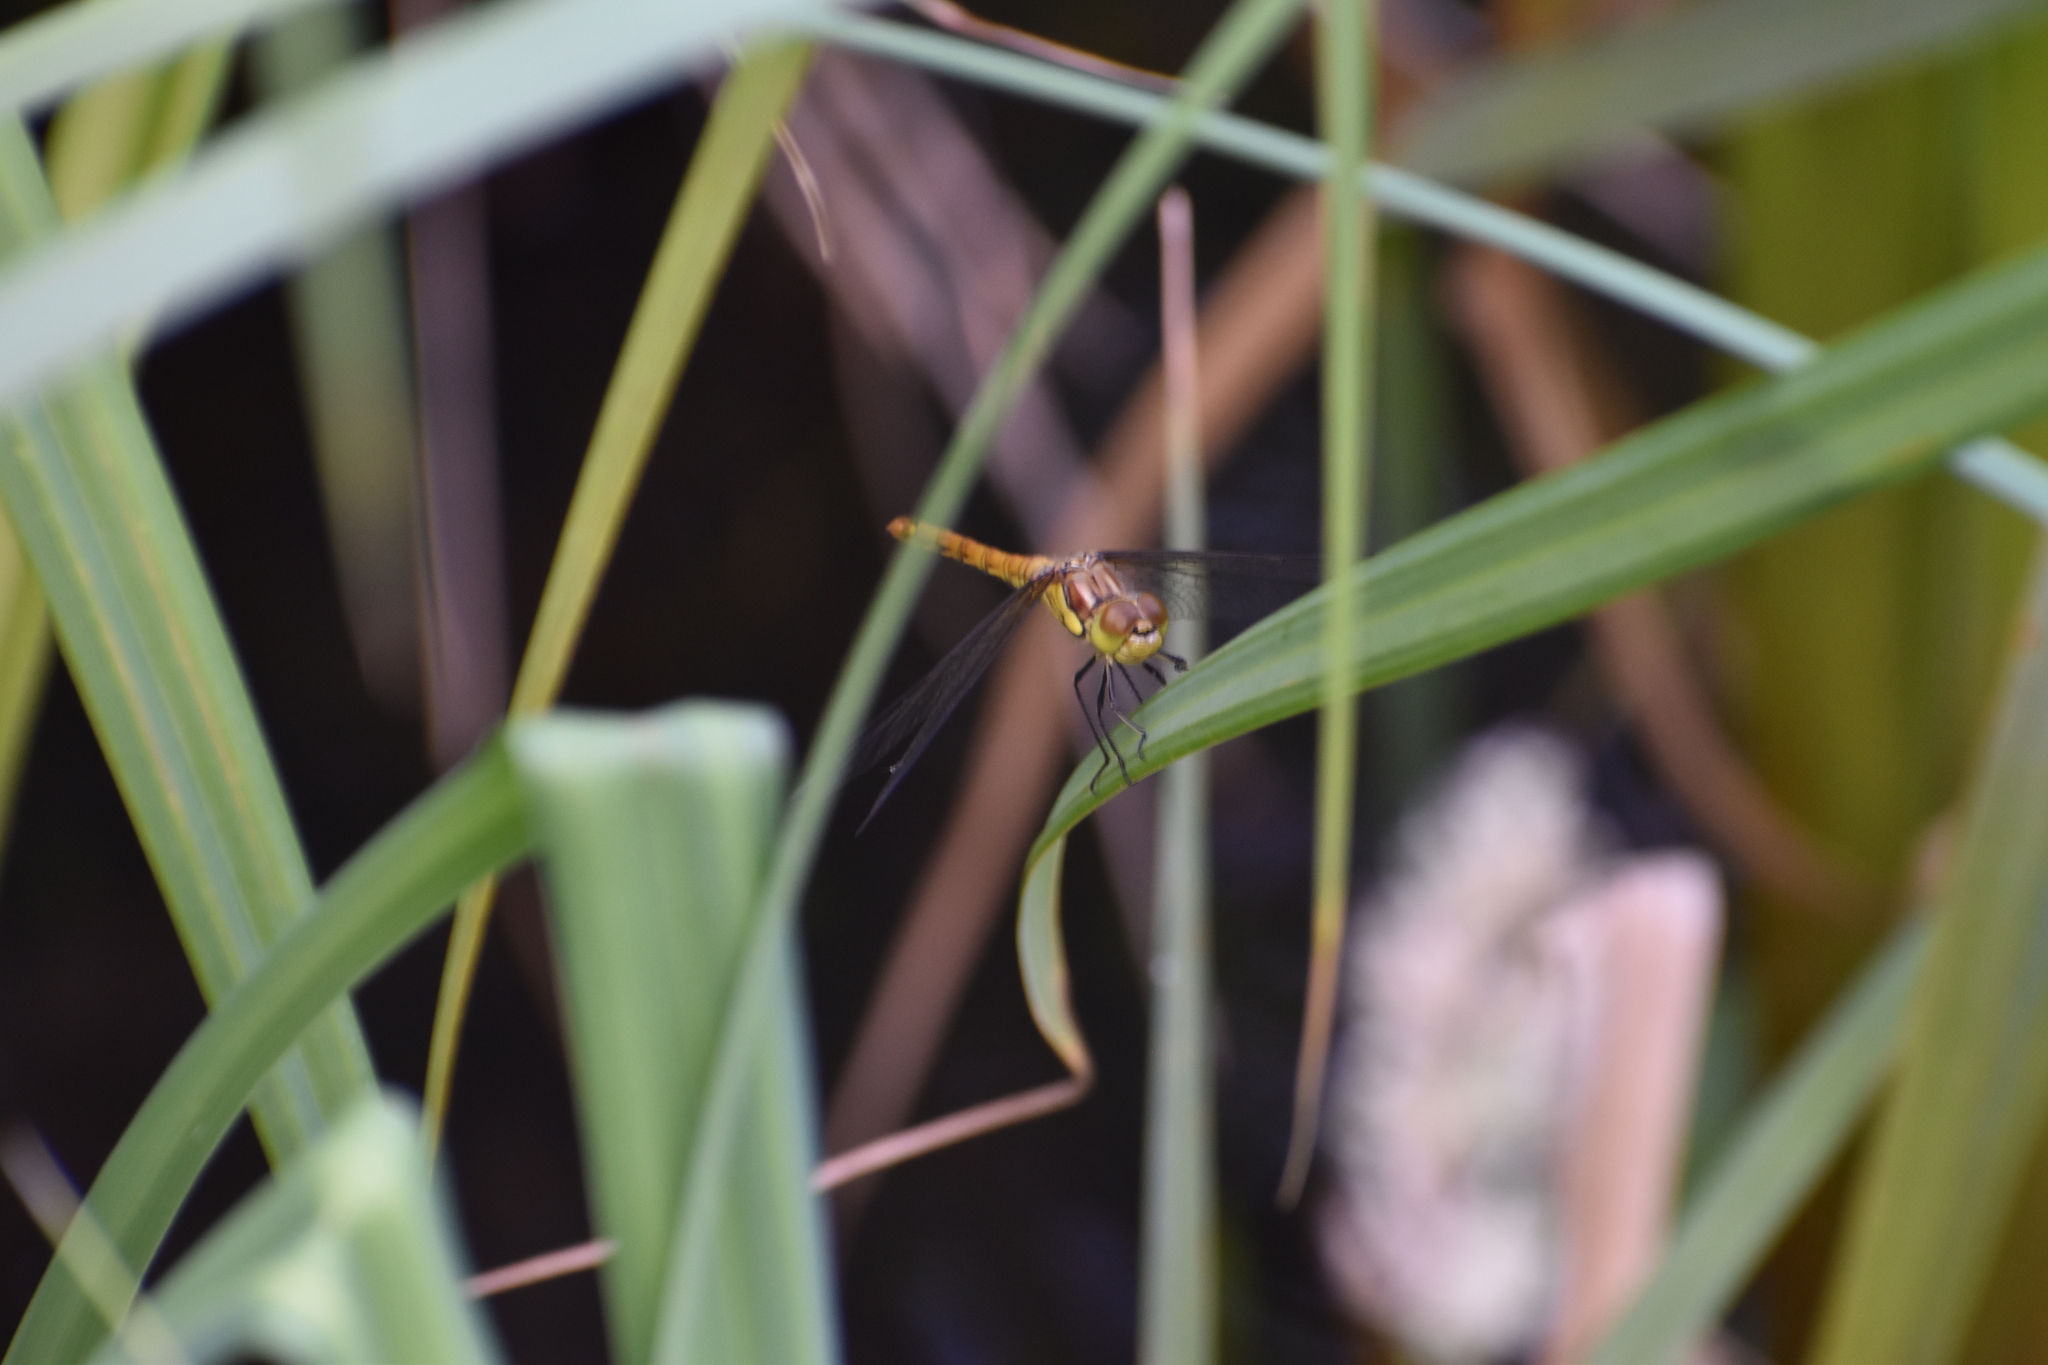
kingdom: Animalia
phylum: Arthropoda
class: Insecta
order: Odonata
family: Libellulidae
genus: Sympetrum
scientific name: Sympetrum striolatum
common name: Common darter
